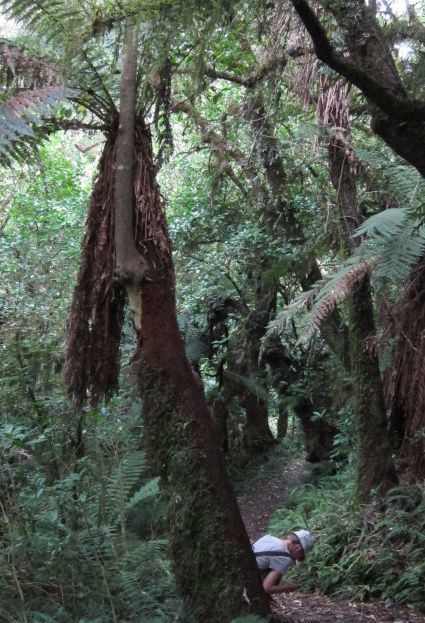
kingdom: Plantae
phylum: Tracheophyta
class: Magnoliopsida
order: Malpighiales
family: Violaceae
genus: Melicytus
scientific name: Melicytus ramiflorus
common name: Mahoe
